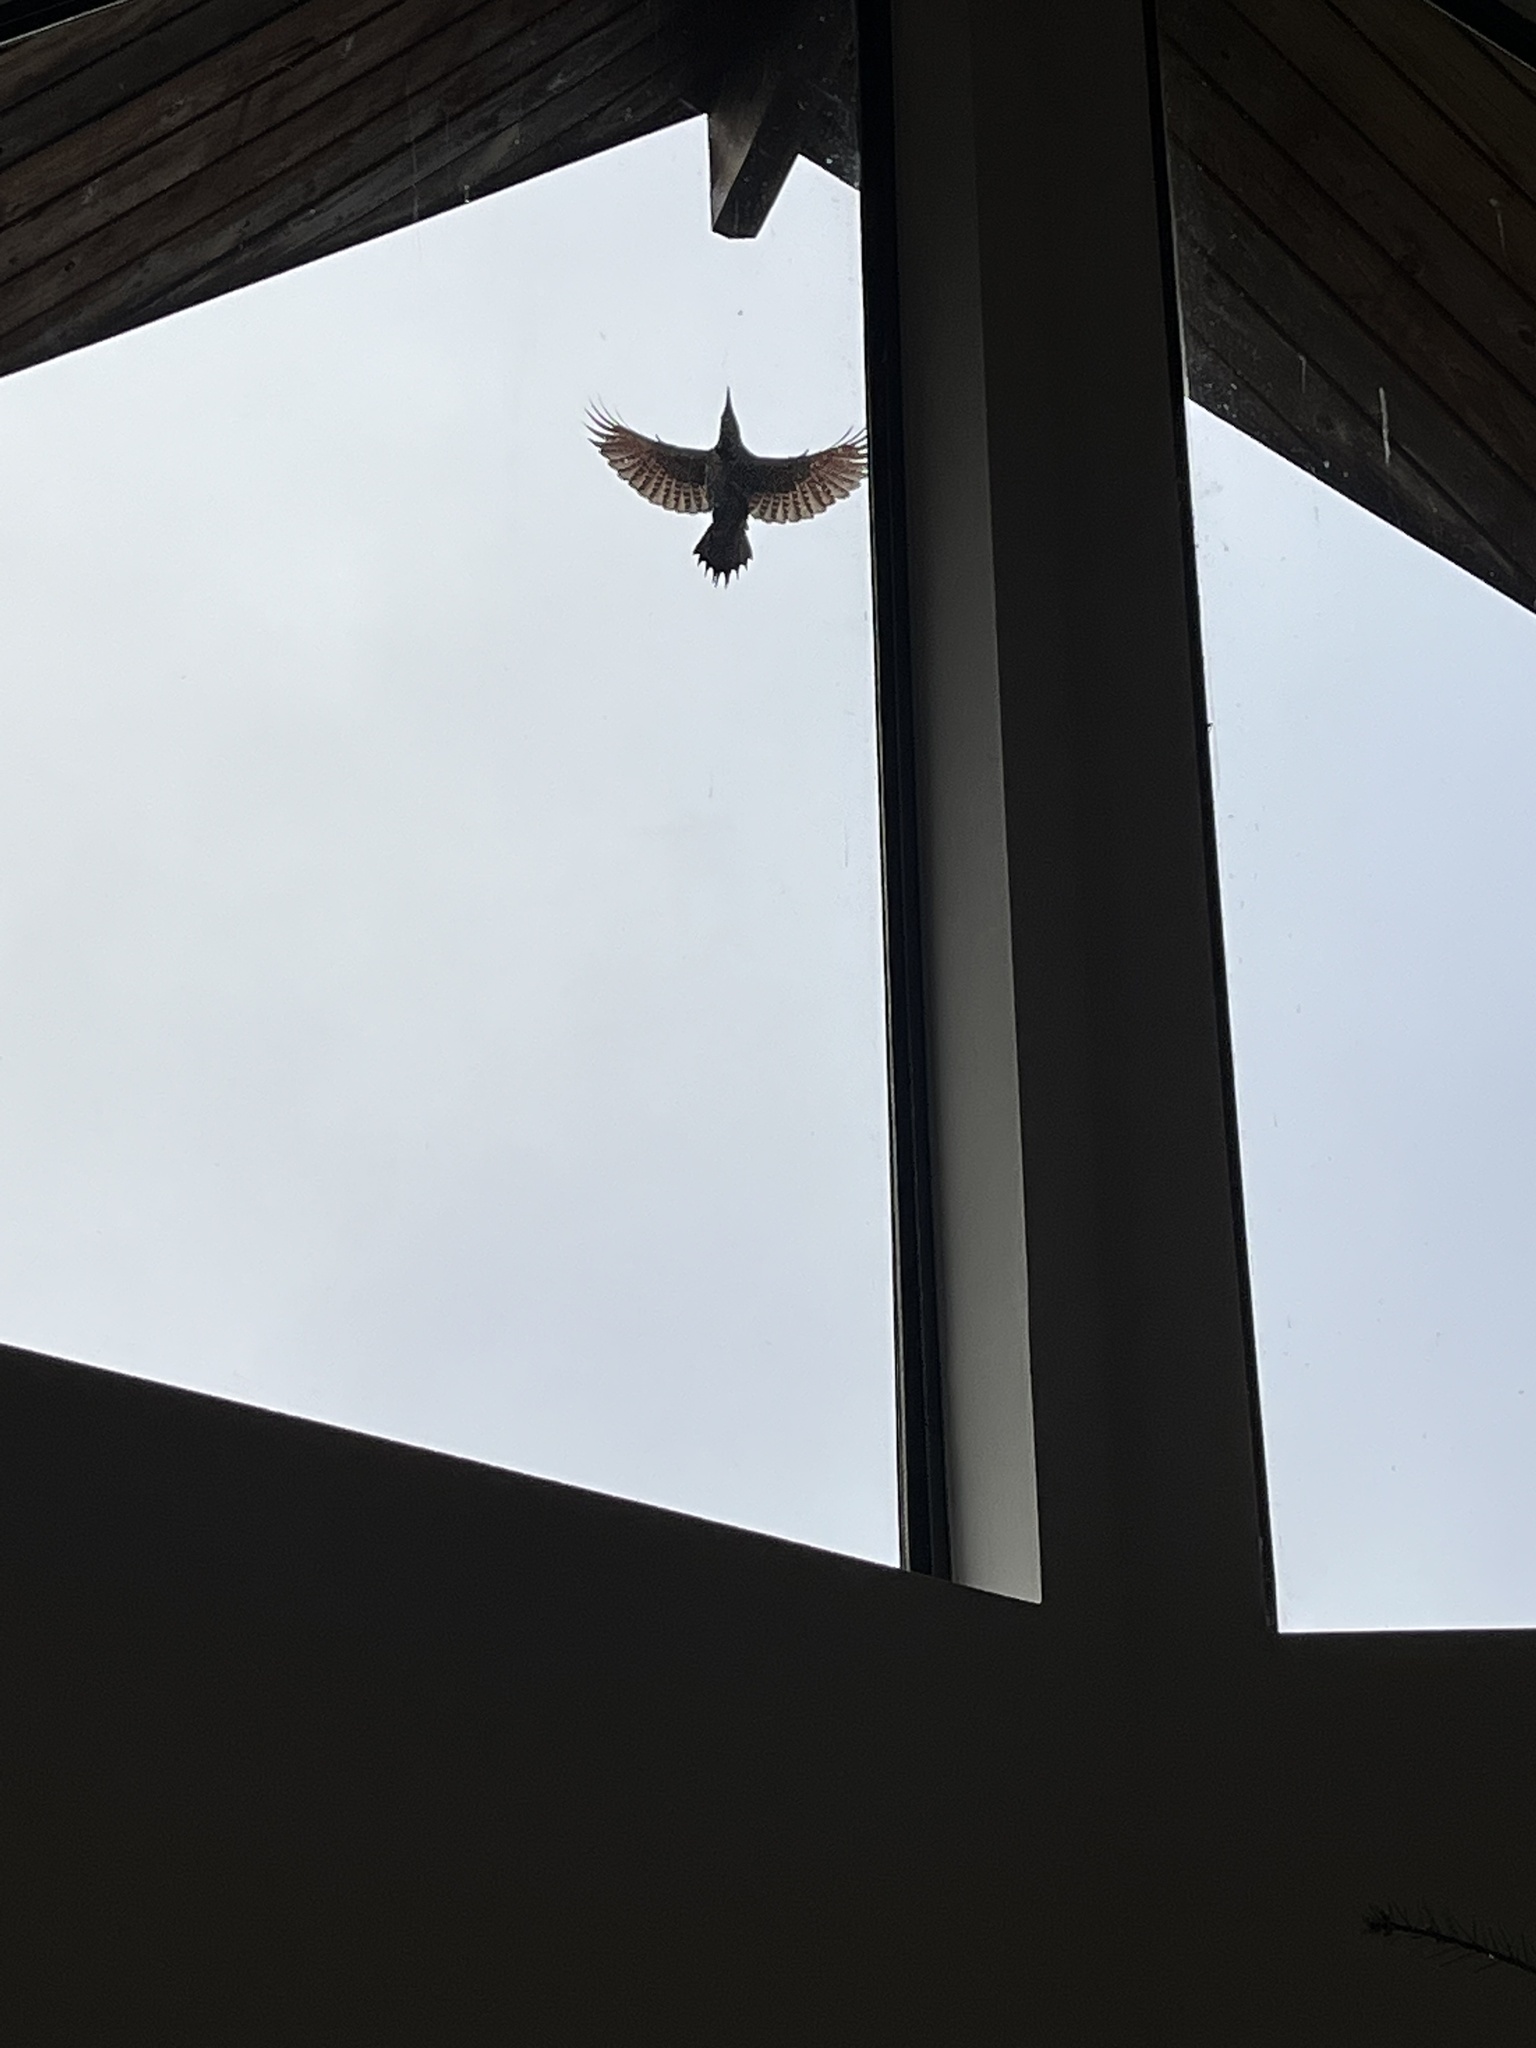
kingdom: Animalia
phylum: Chordata
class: Aves
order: Piciformes
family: Picidae
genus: Colaptes
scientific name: Colaptes auratus
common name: Northern flicker
